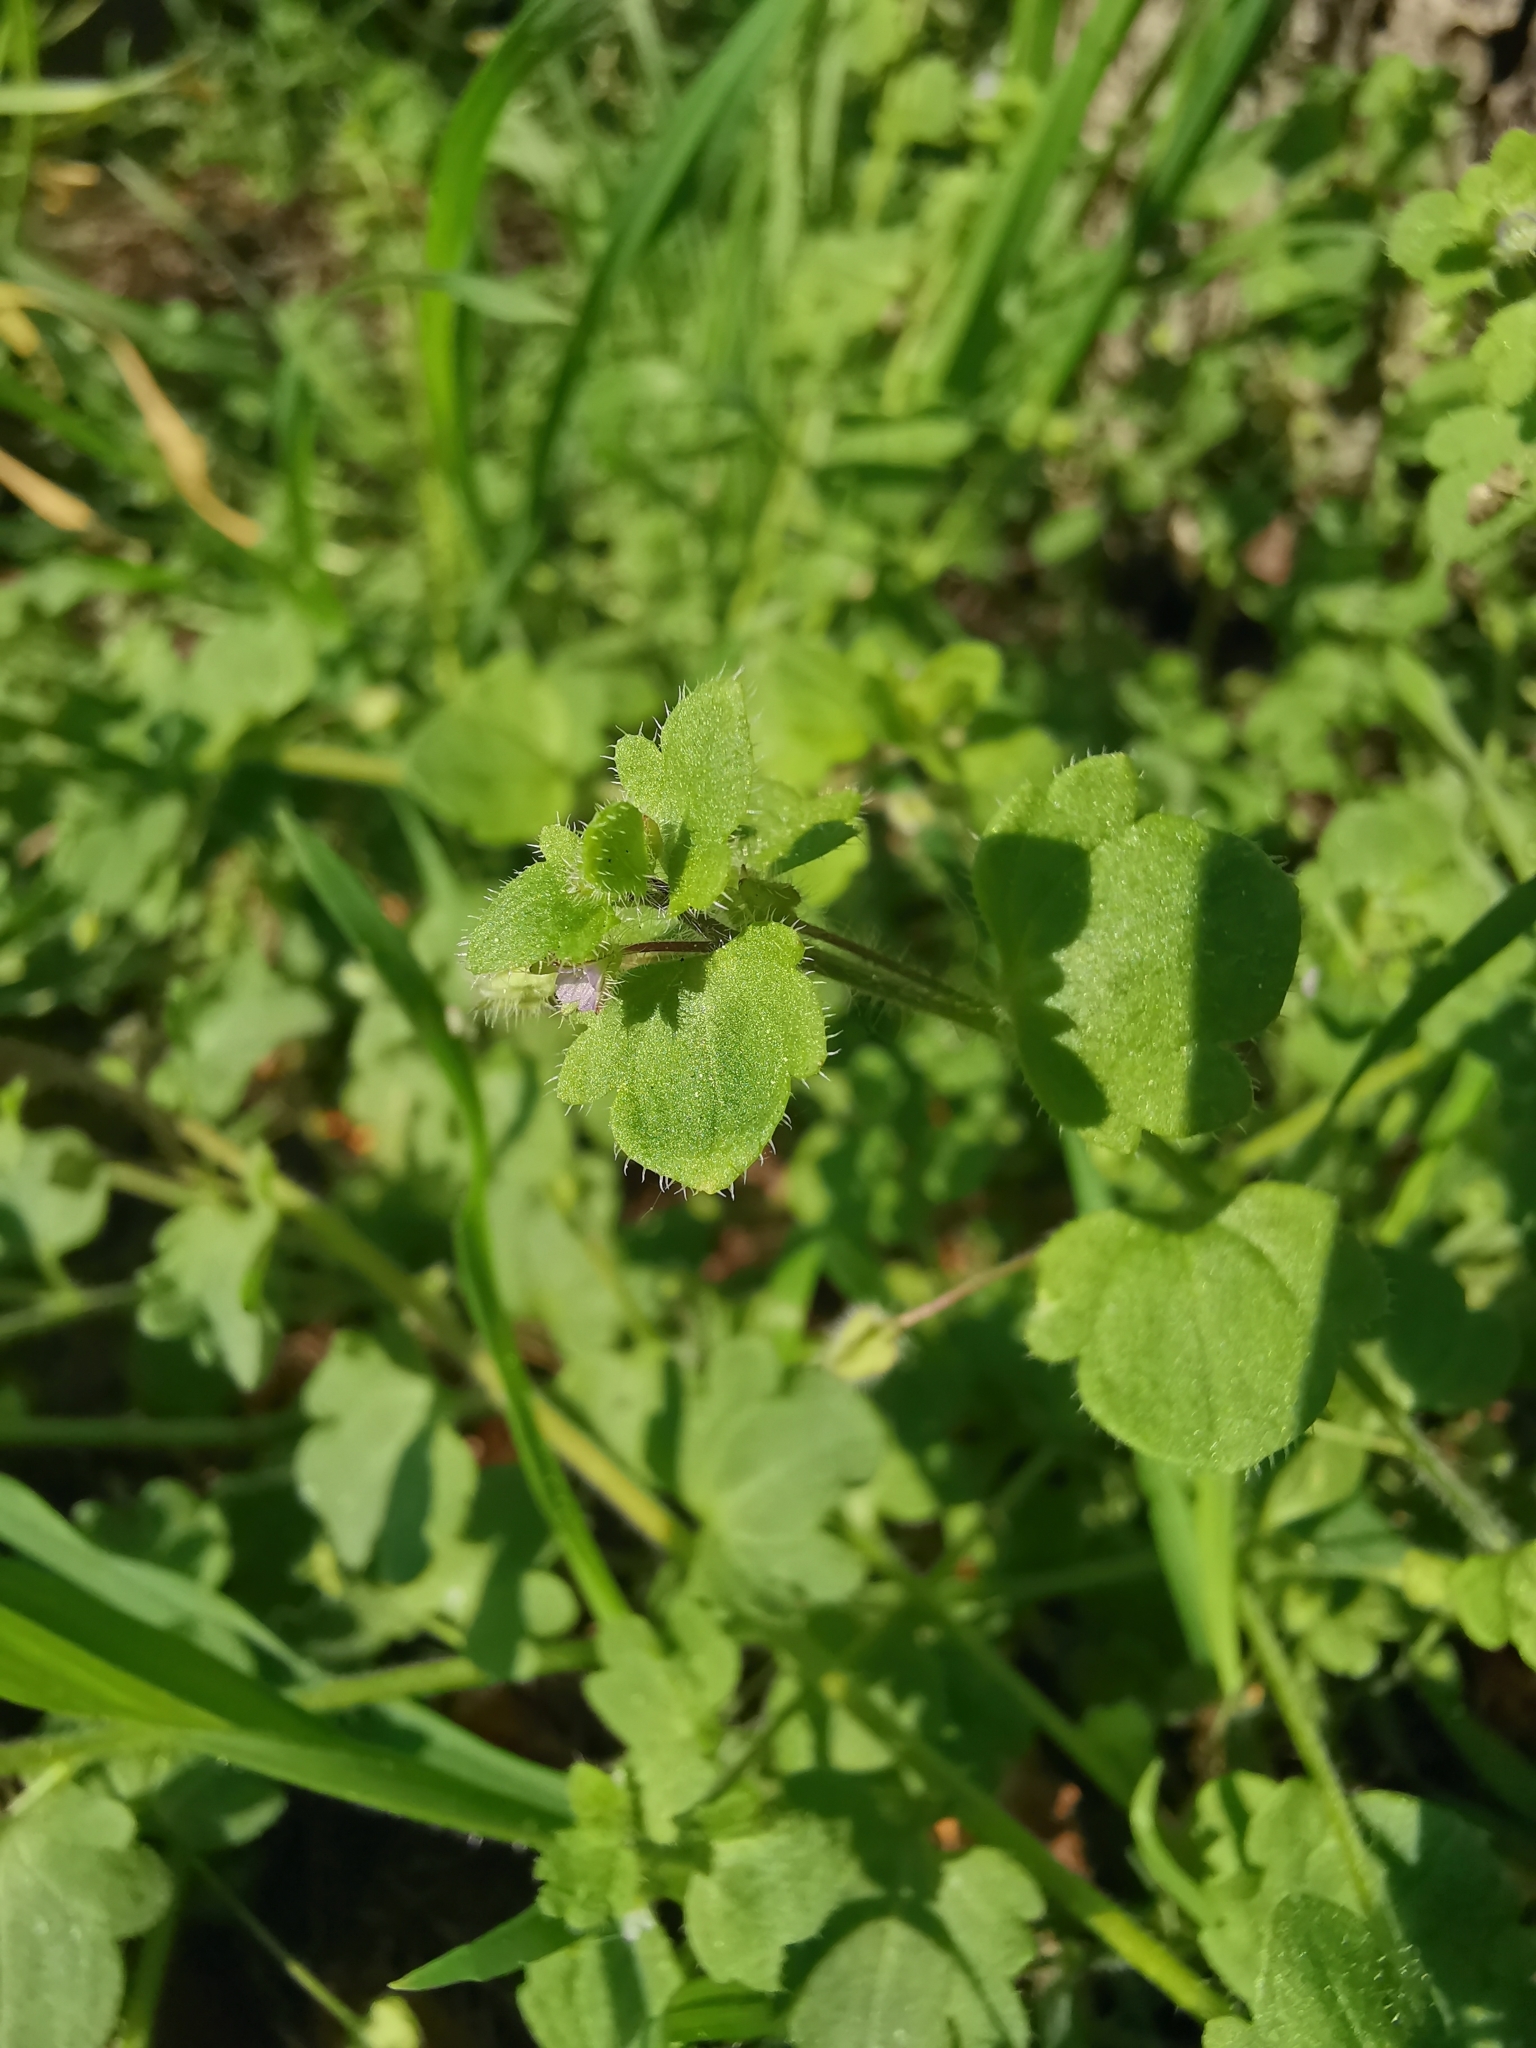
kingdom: Plantae
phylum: Tracheophyta
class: Magnoliopsida
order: Lamiales
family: Plantaginaceae
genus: Veronica
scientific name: Veronica sublobata
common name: False ivy-leaved speedwell
